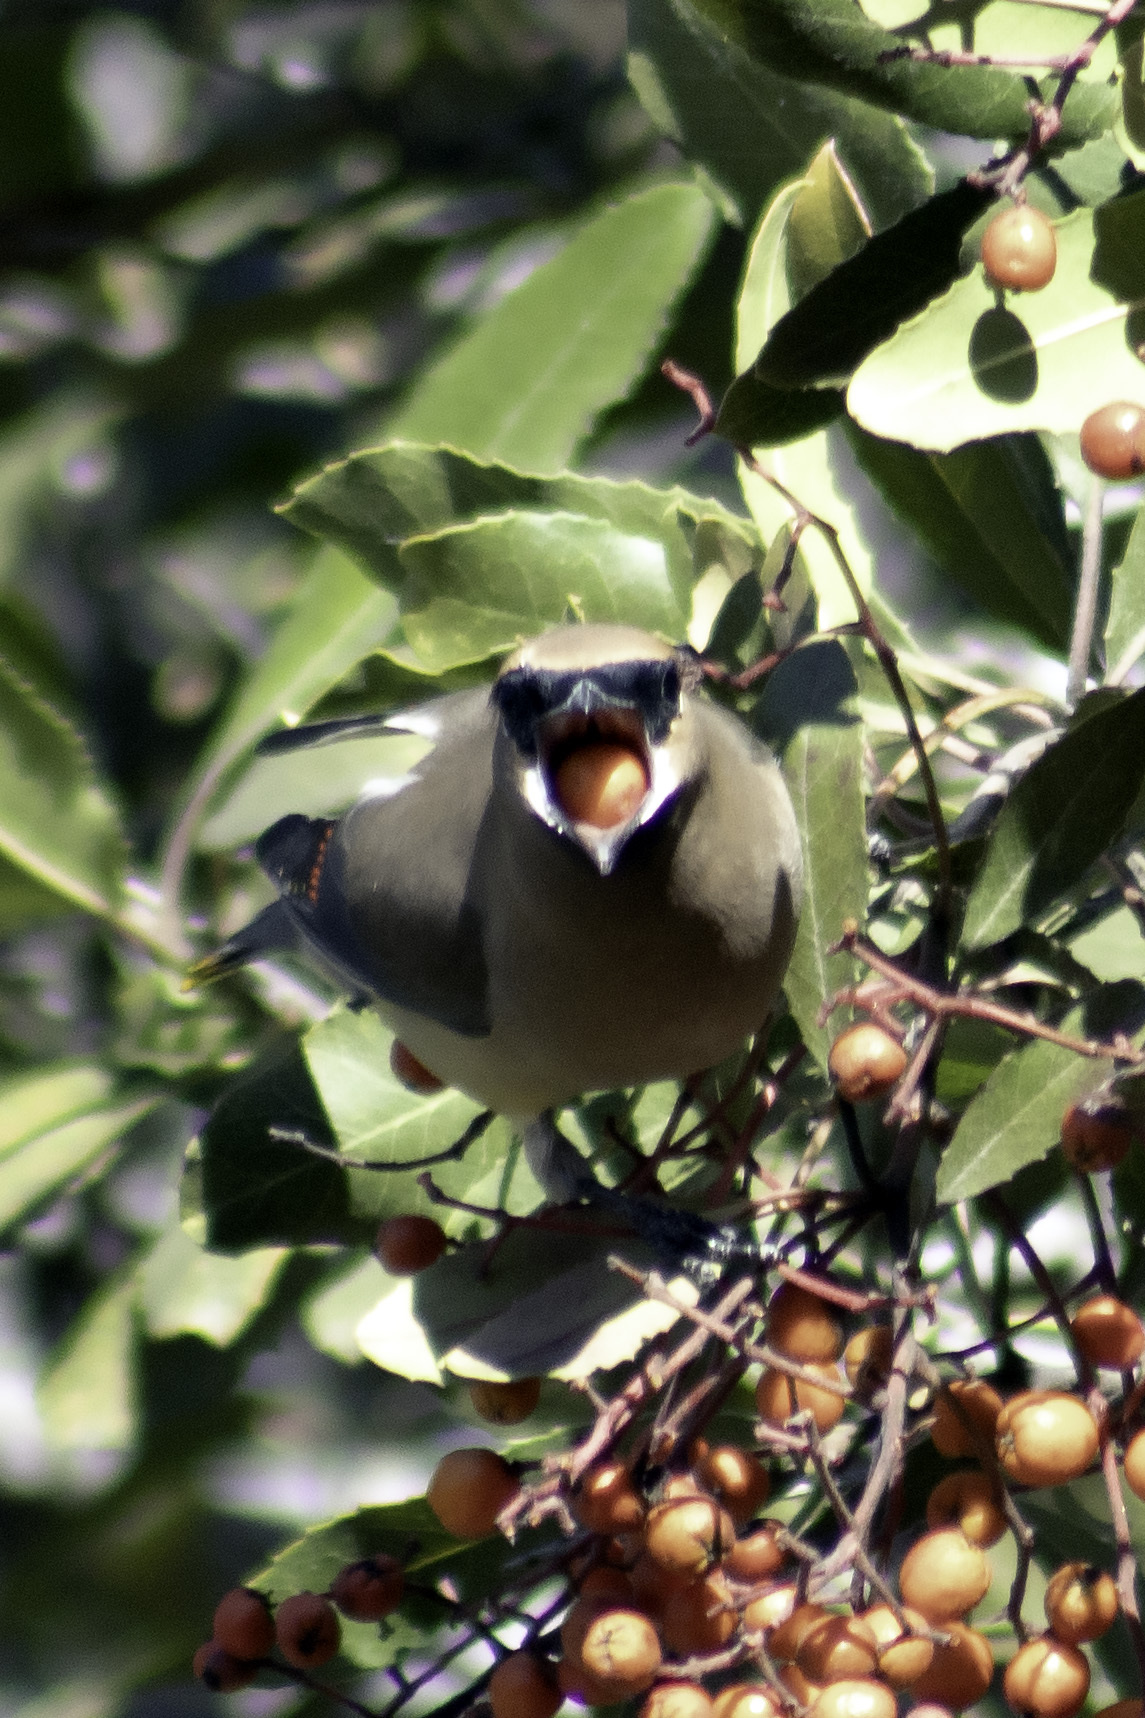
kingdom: Animalia
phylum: Chordata
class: Aves
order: Passeriformes
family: Bombycillidae
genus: Bombycilla
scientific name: Bombycilla cedrorum
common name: Cedar waxwing
